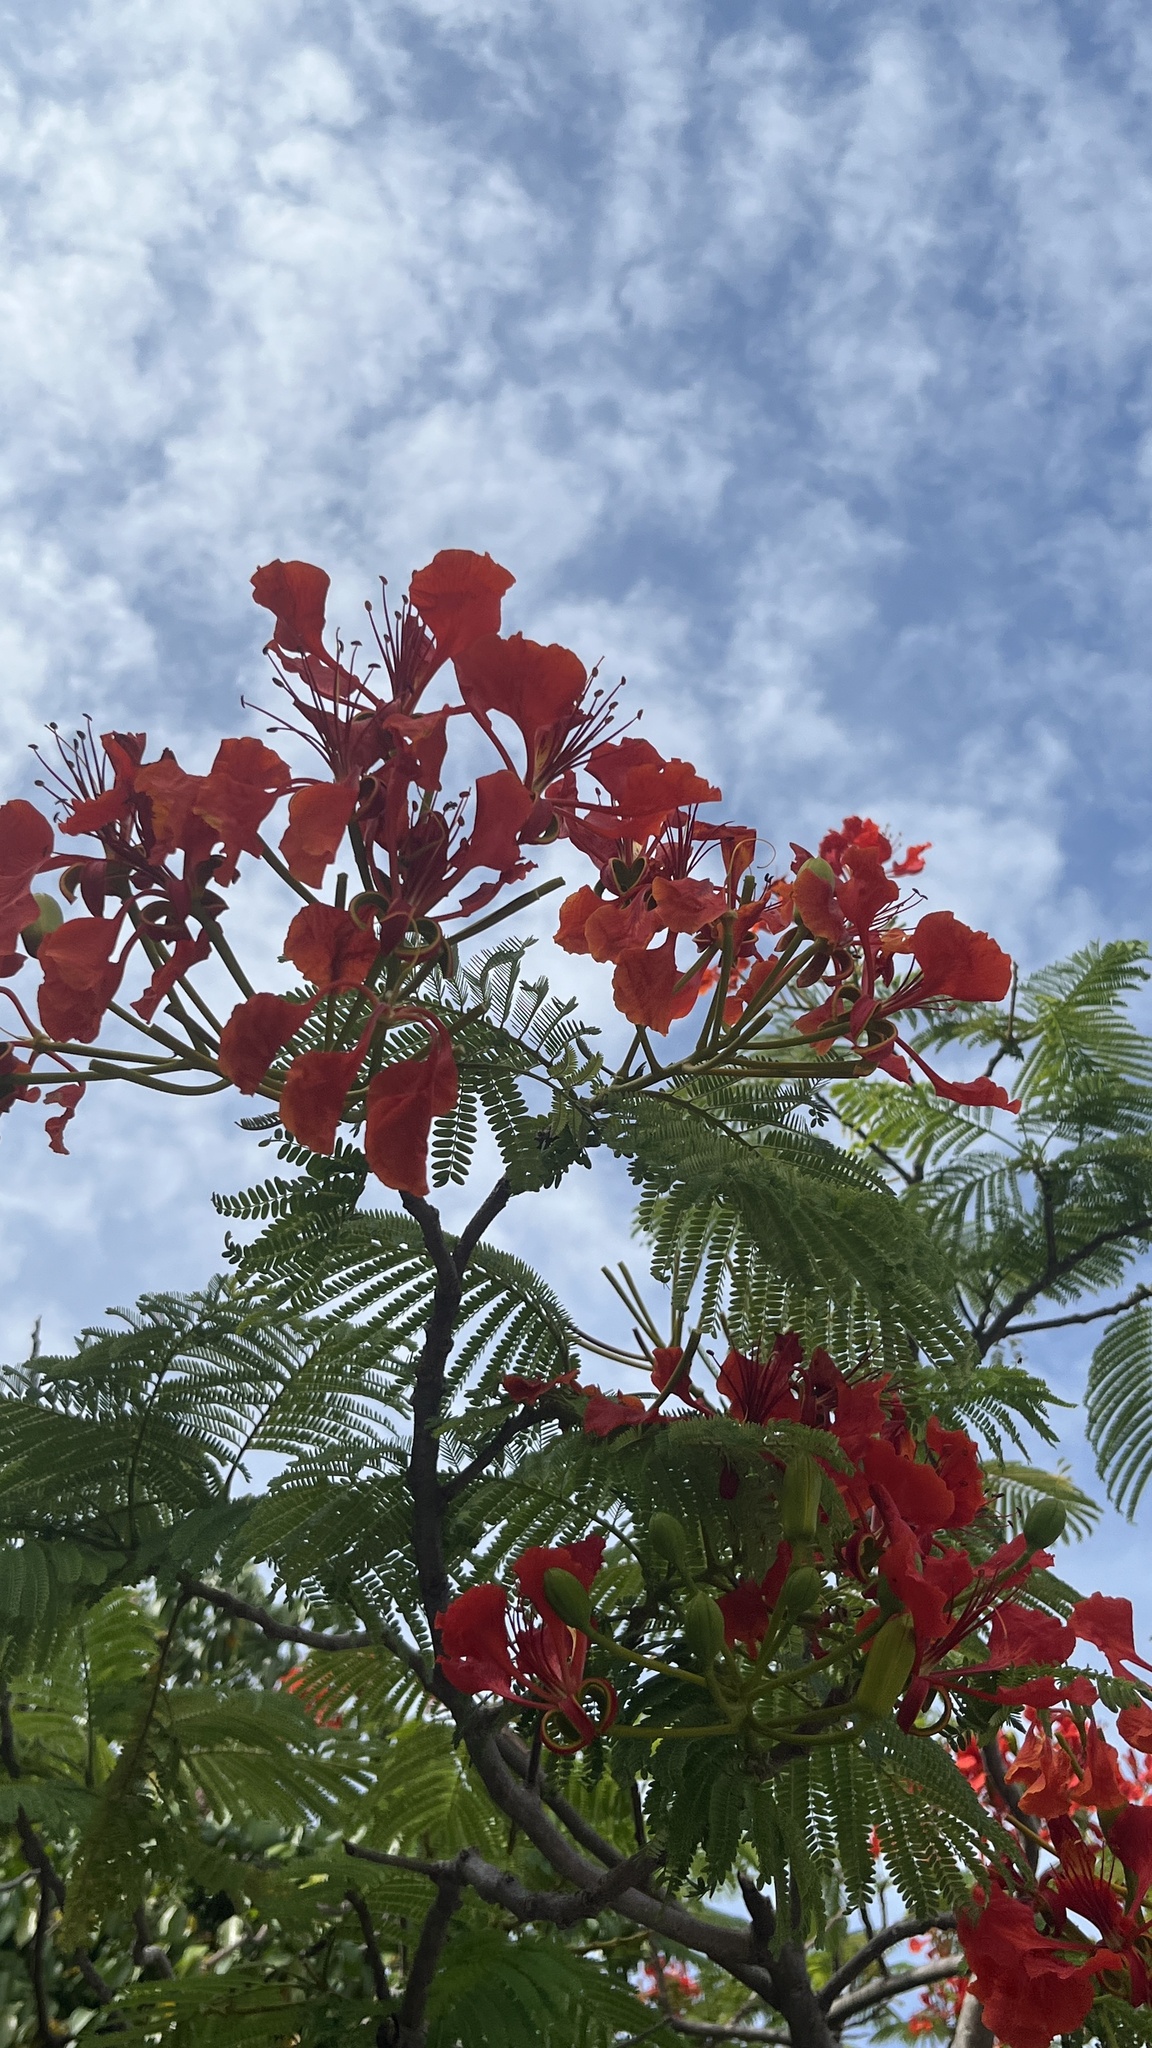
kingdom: Plantae
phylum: Tracheophyta
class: Magnoliopsida
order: Fabales
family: Fabaceae
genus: Delonix
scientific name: Delonix regia
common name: Royal poinciana
